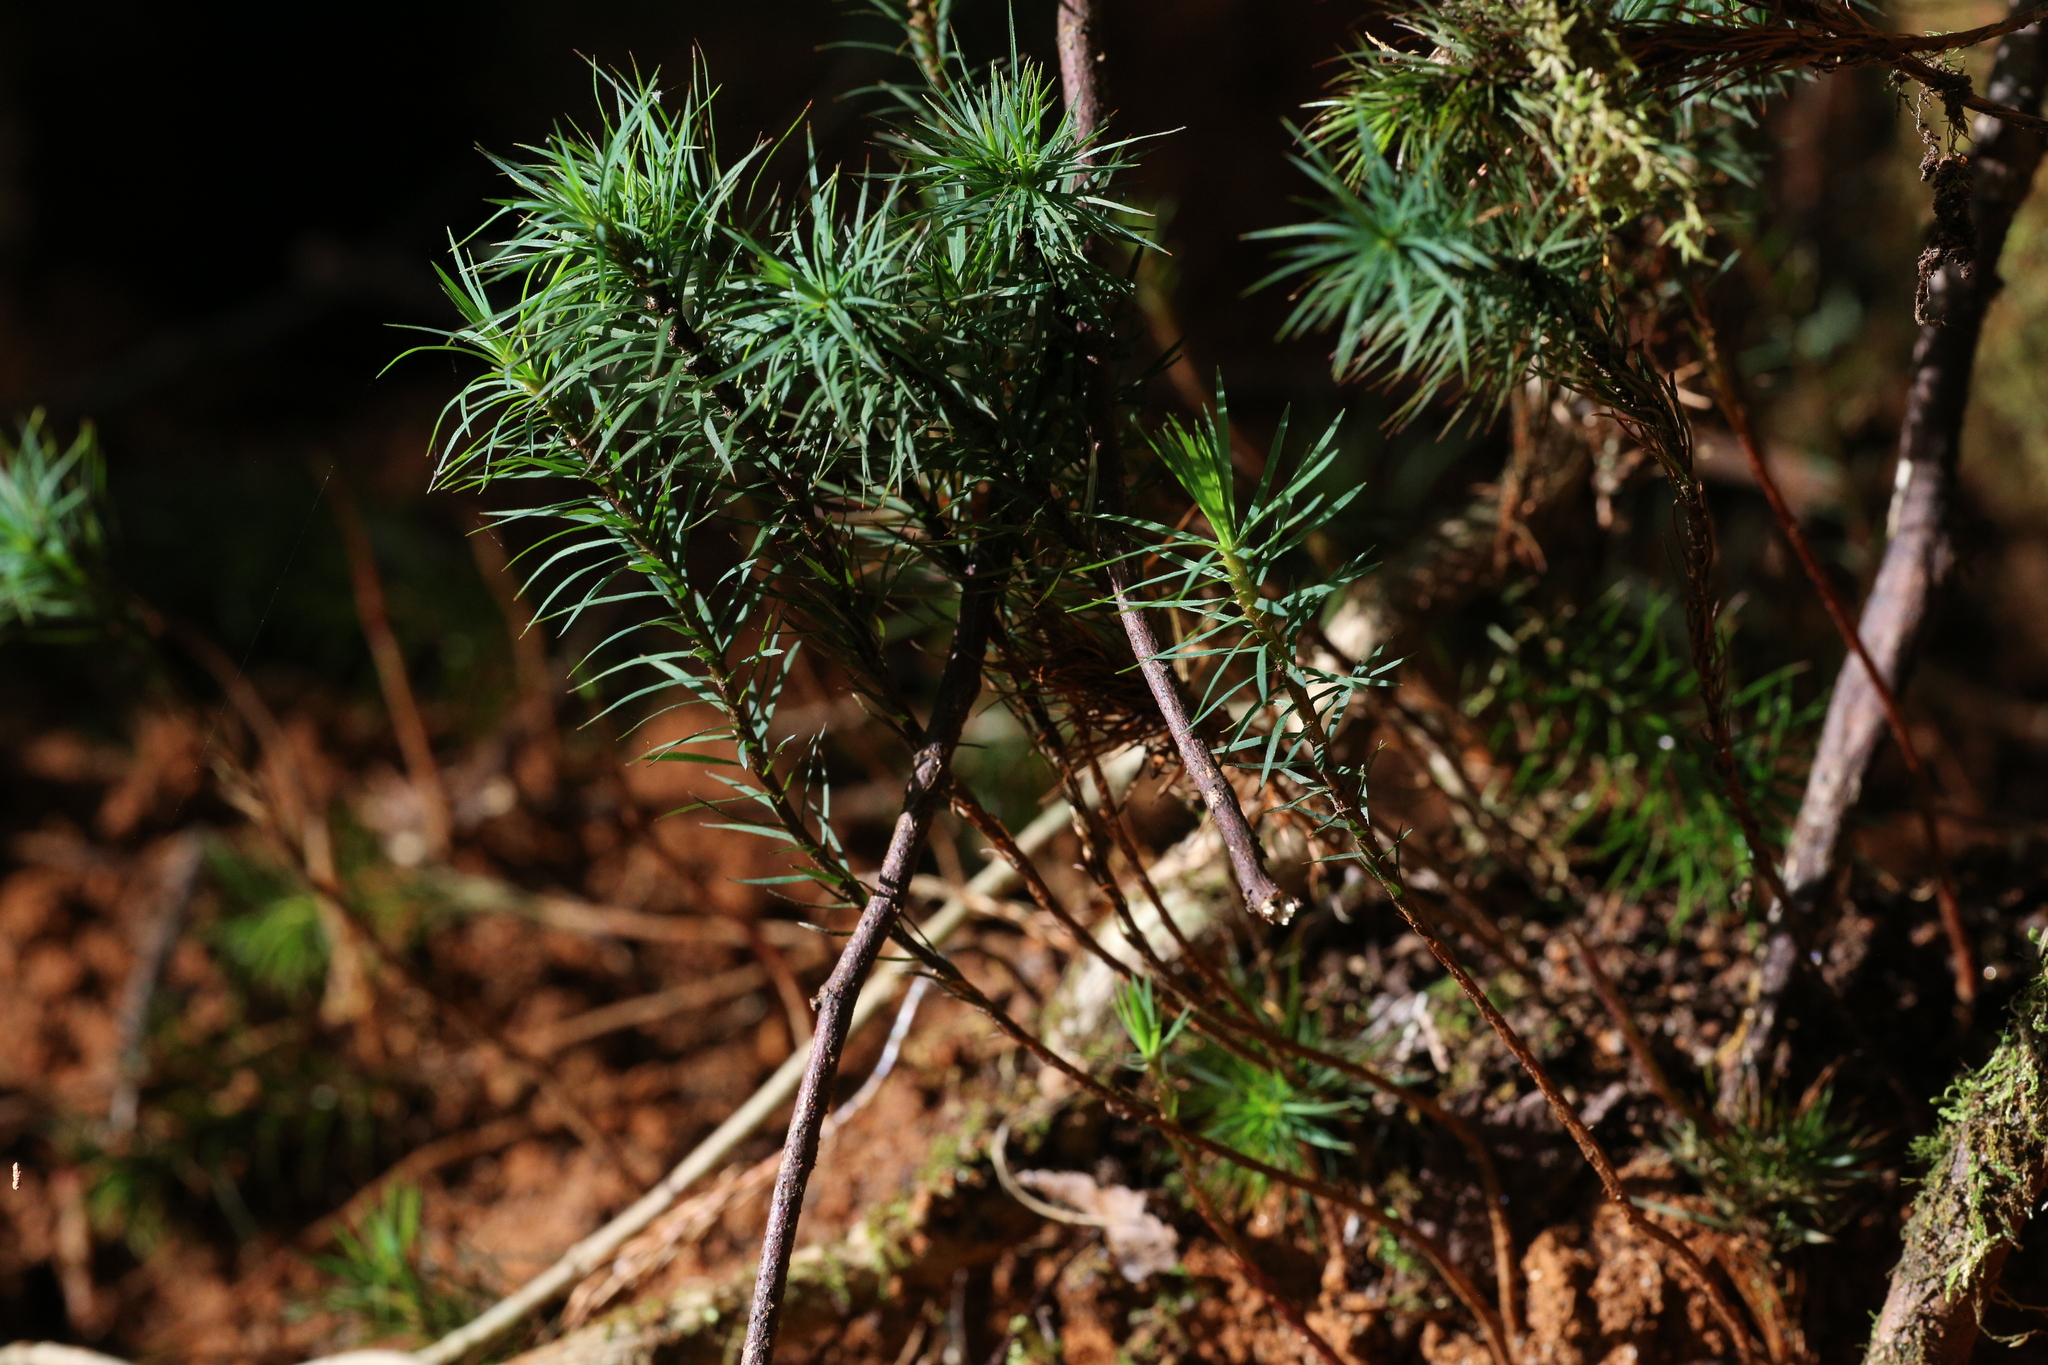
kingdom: Plantae
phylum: Bryophyta
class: Polytrichopsida
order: Polytrichales
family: Polytrichaceae
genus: Dawsonia
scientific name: Dawsonia superba
